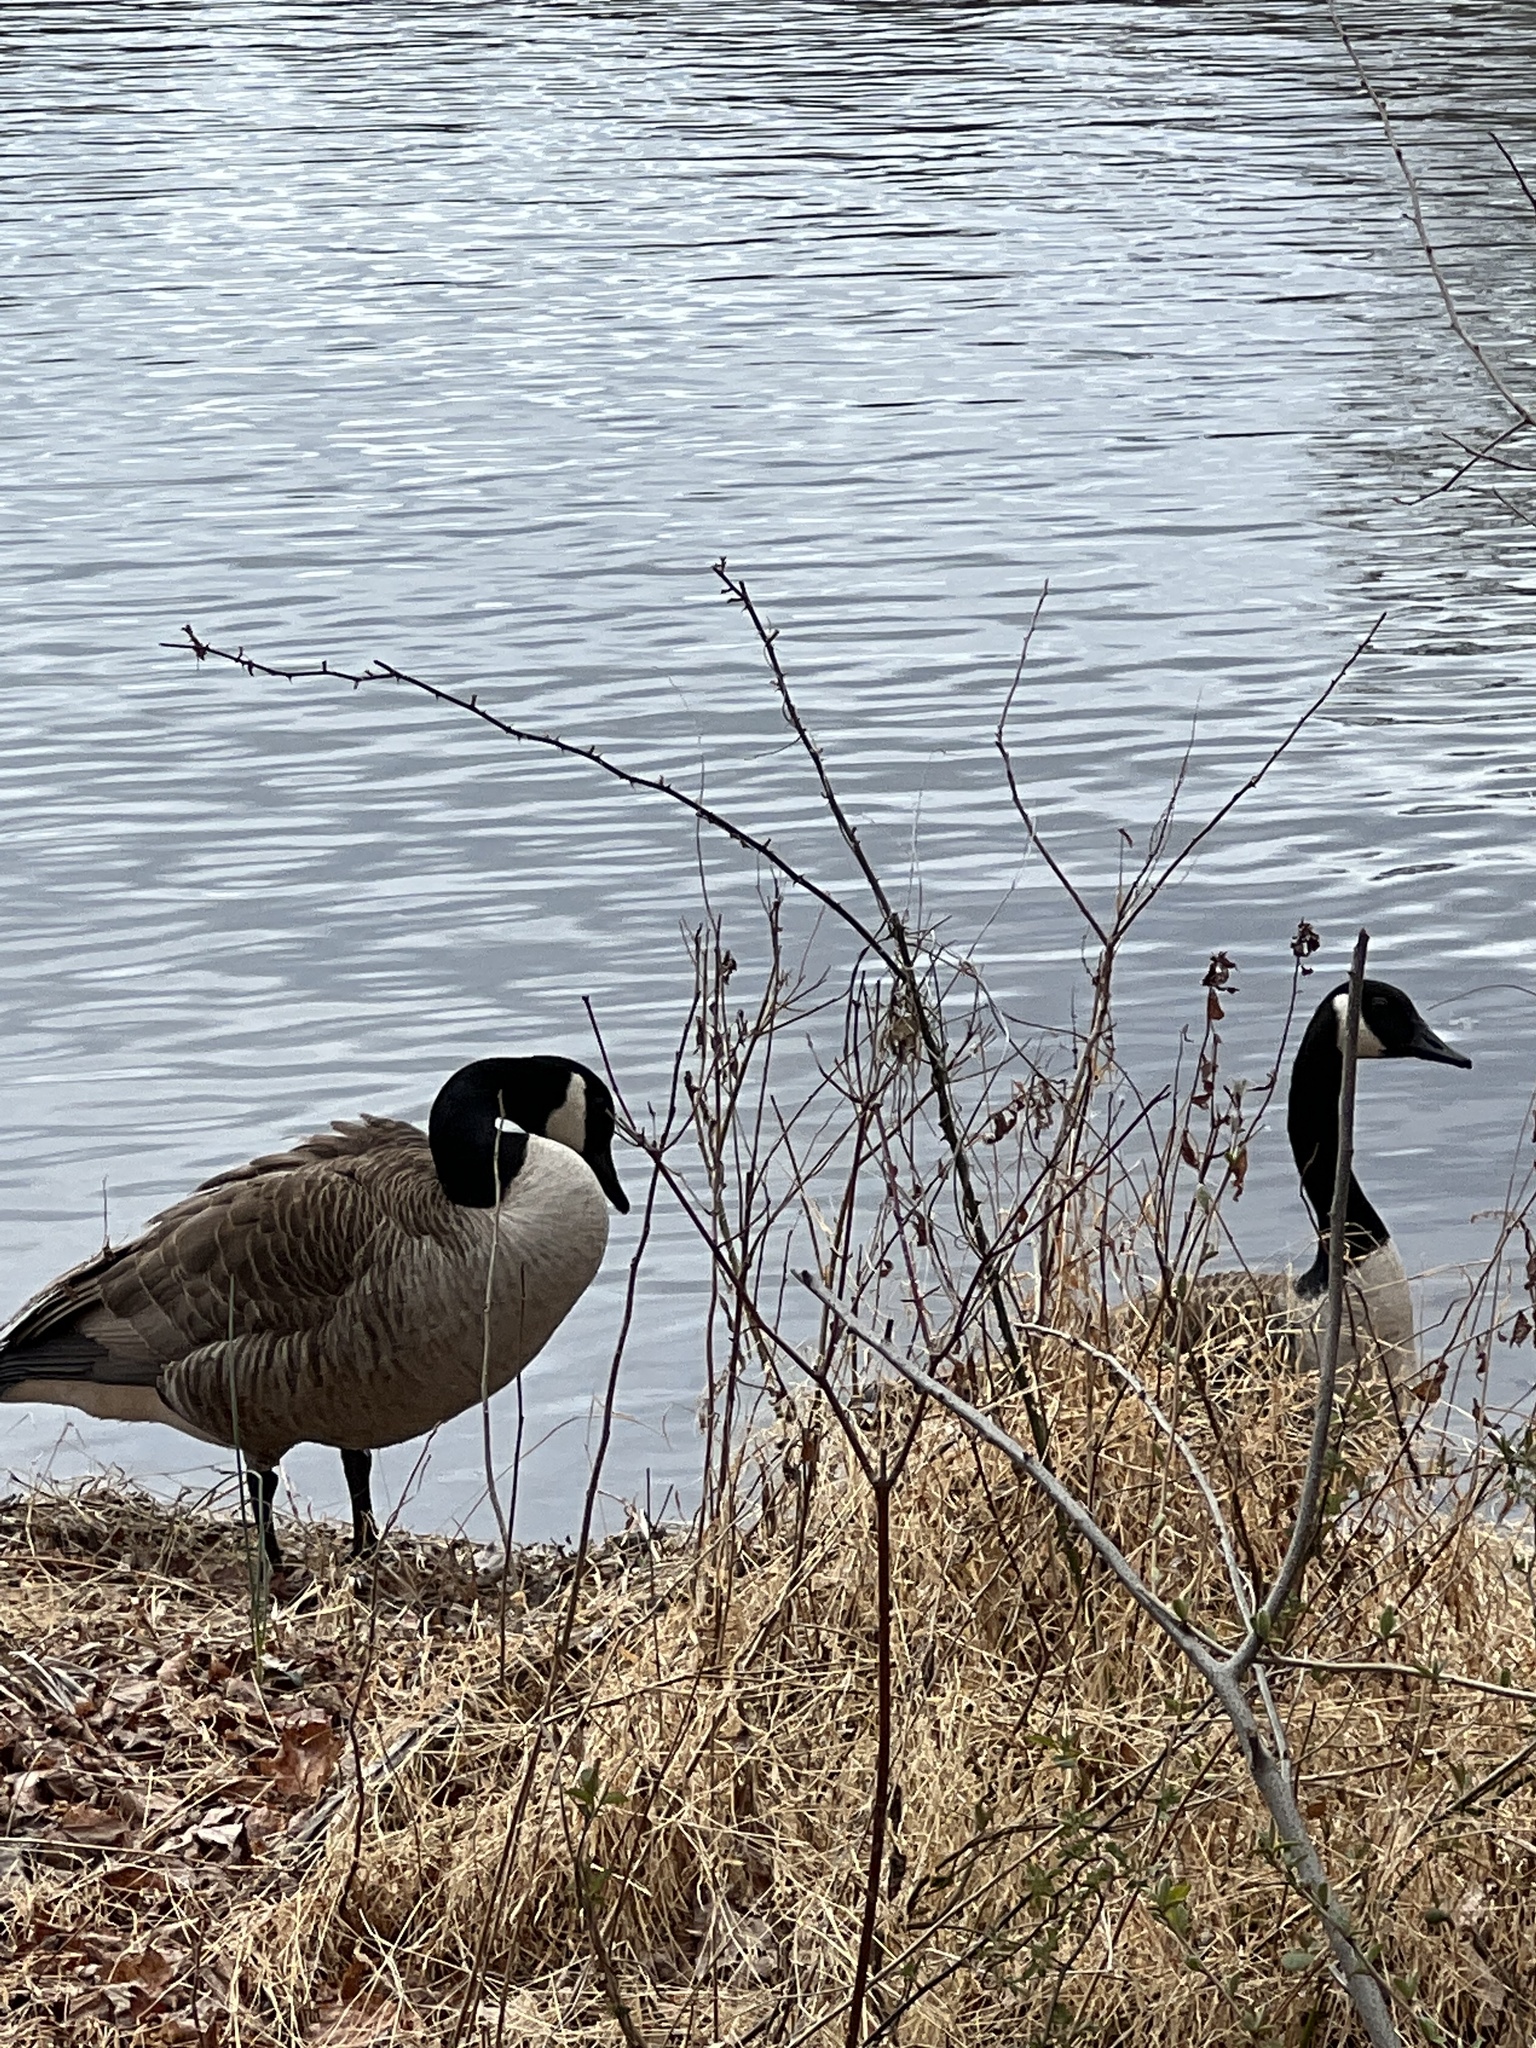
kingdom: Animalia
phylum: Chordata
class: Aves
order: Anseriformes
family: Anatidae
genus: Branta
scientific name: Branta canadensis
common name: Canada goose
